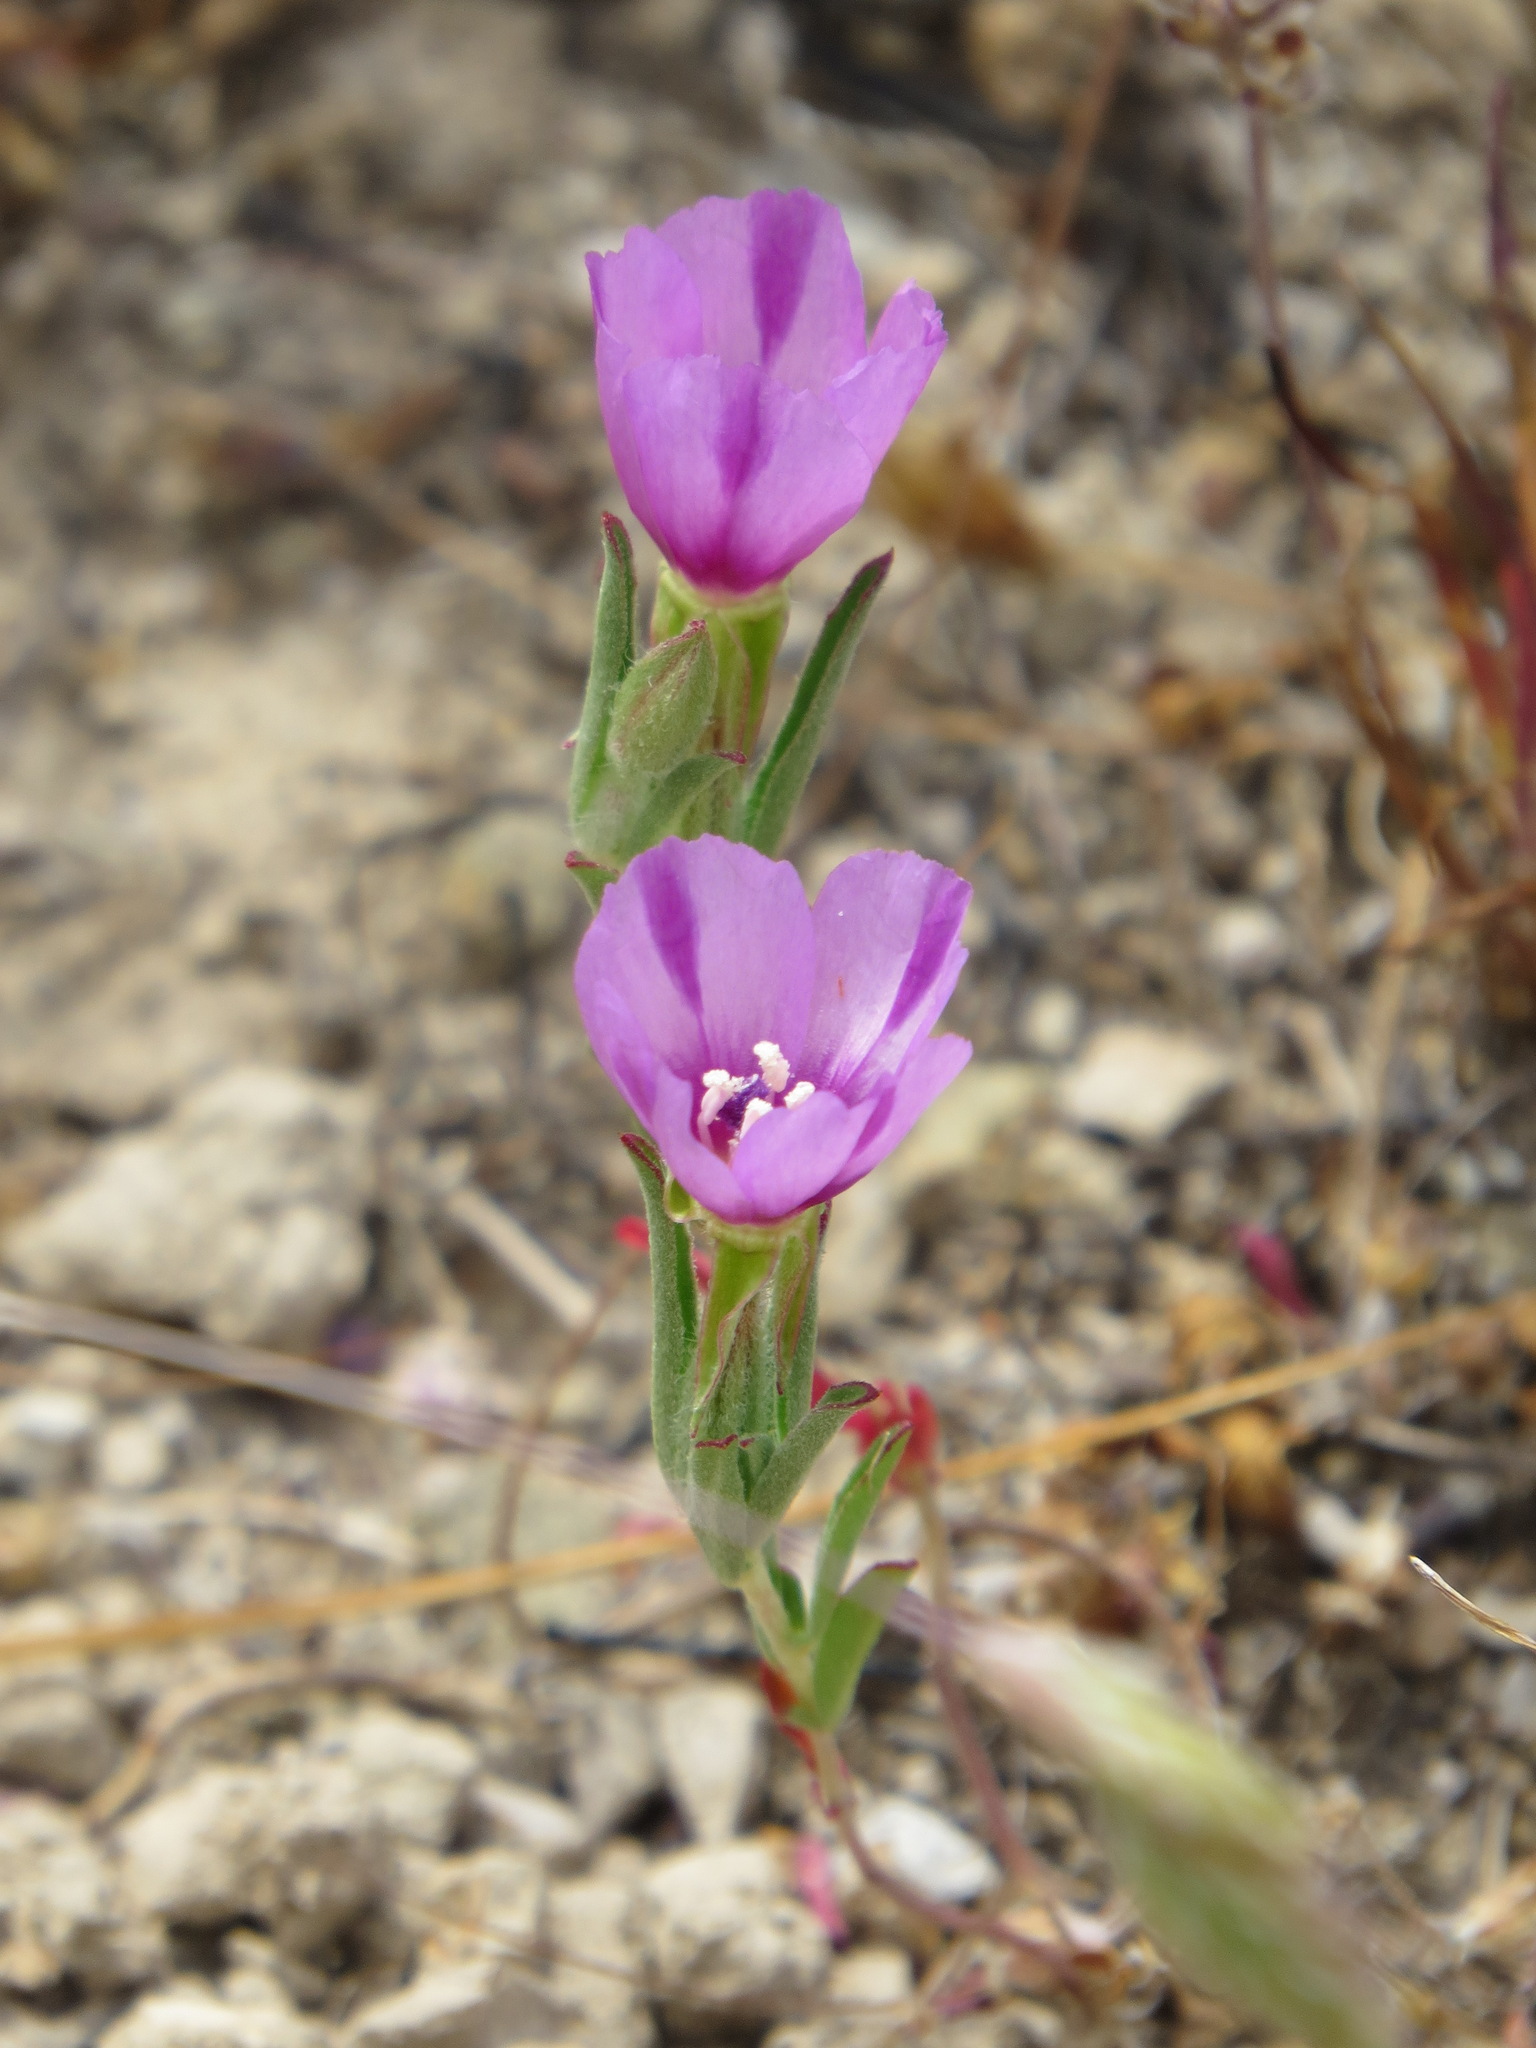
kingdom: Plantae
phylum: Tracheophyta
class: Magnoliopsida
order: Myrtales
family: Onagraceae
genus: Clarkia
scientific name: Clarkia purpurea
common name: Purple clarkia
